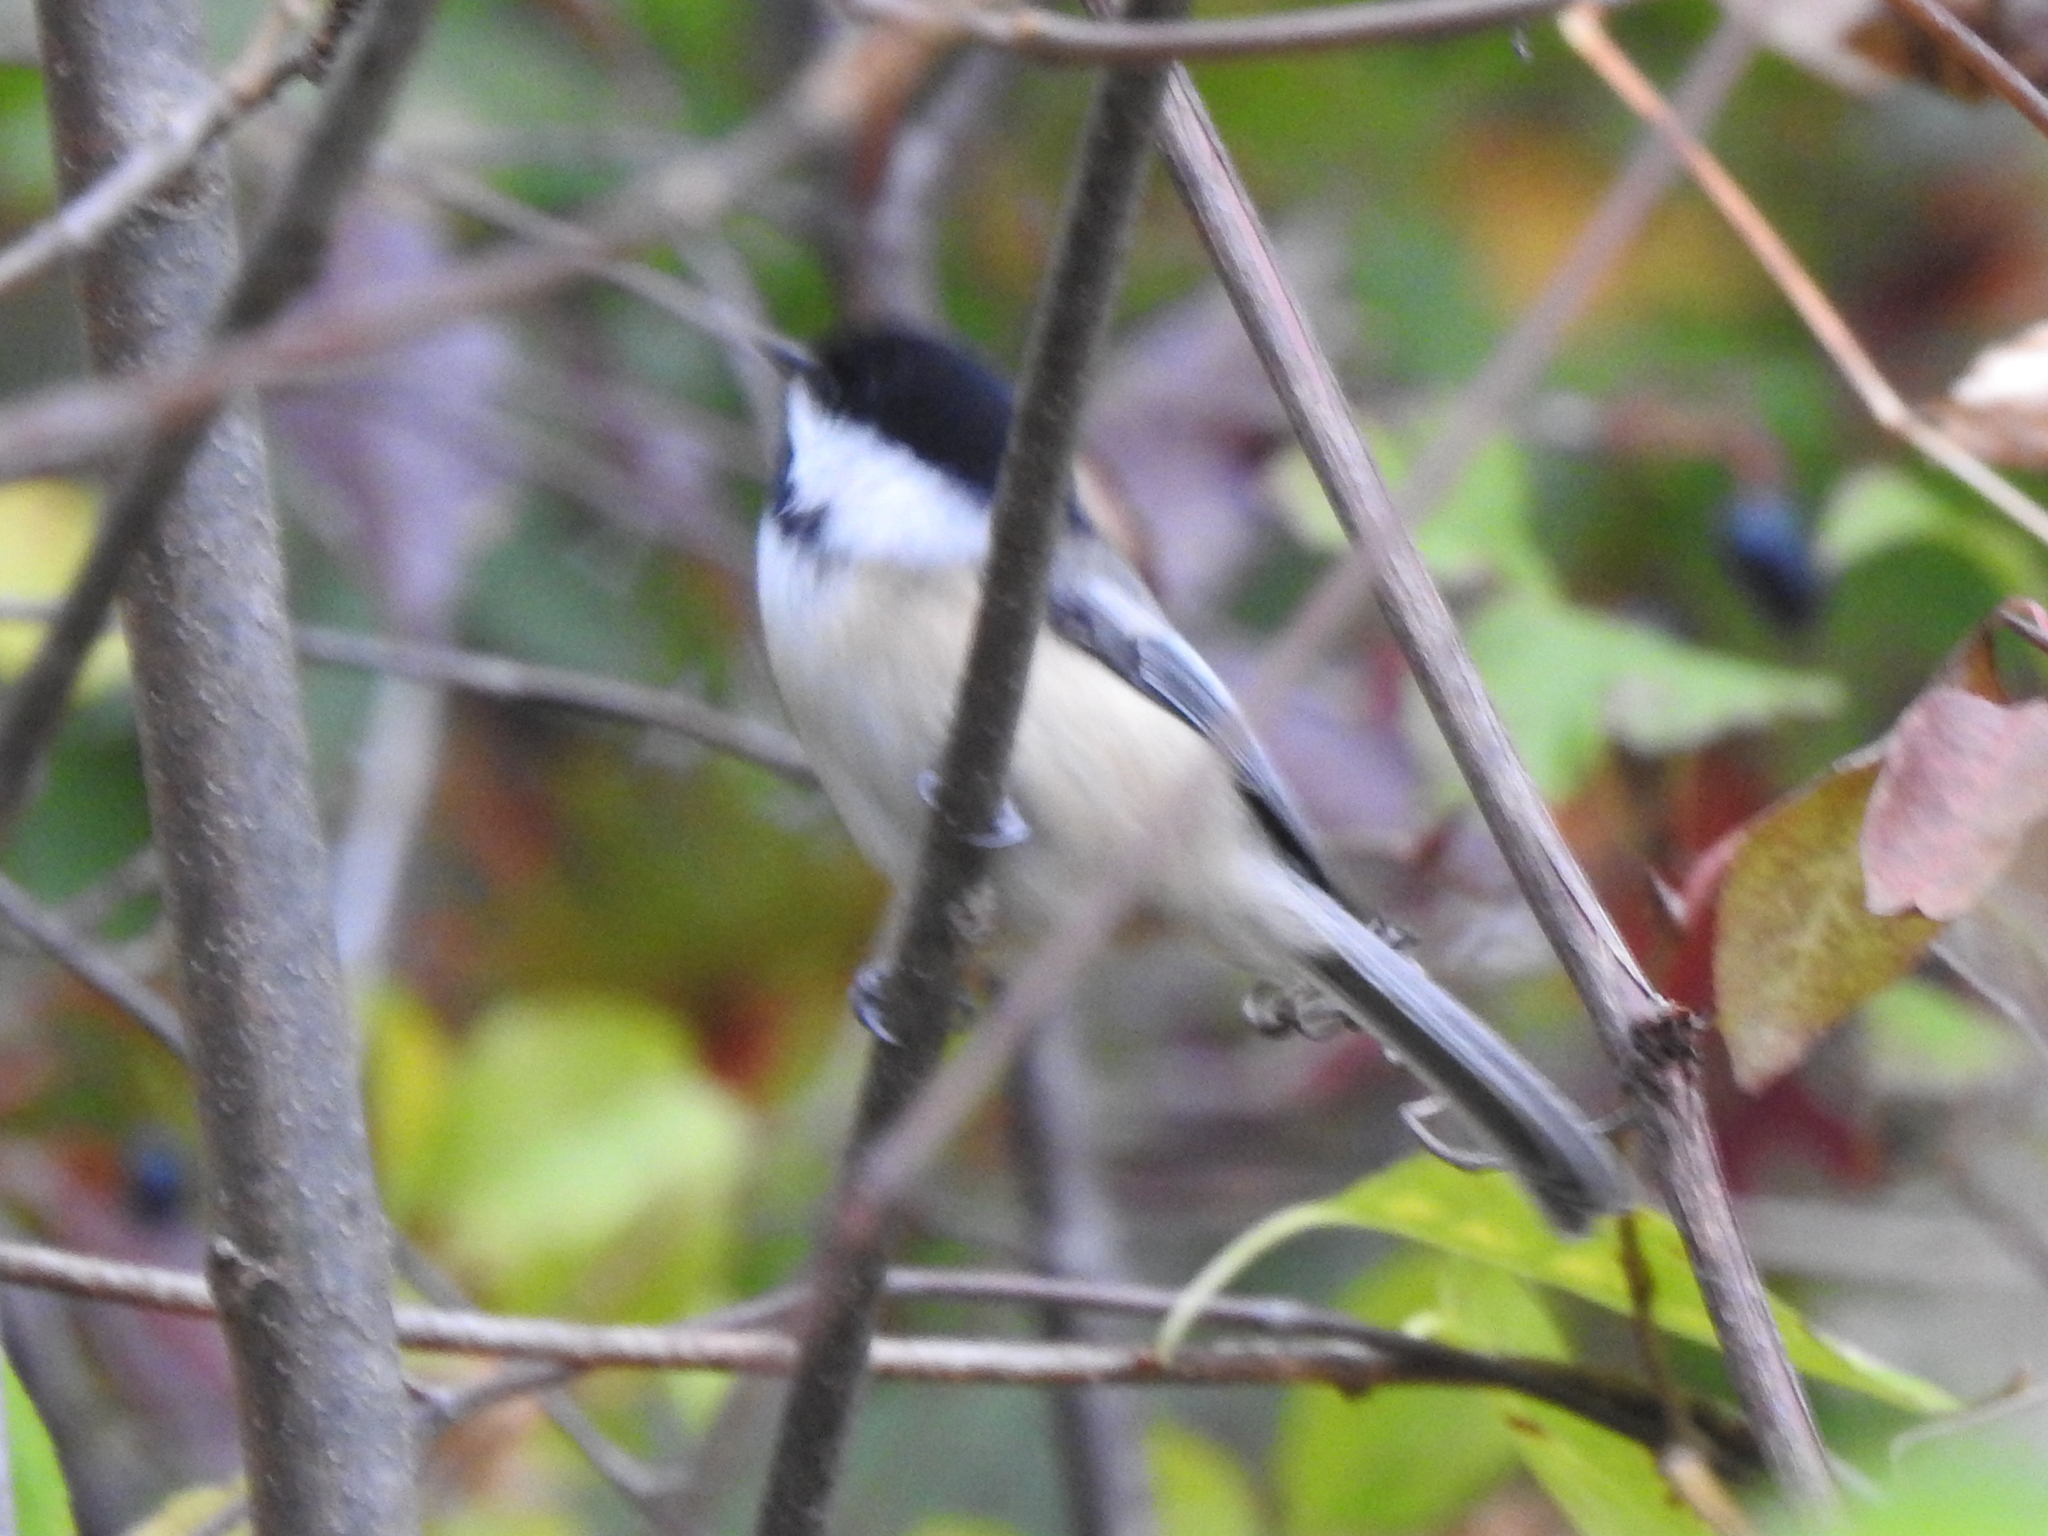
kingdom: Animalia
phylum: Chordata
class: Aves
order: Passeriformes
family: Paridae
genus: Poecile
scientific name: Poecile atricapillus
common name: Black-capped chickadee
